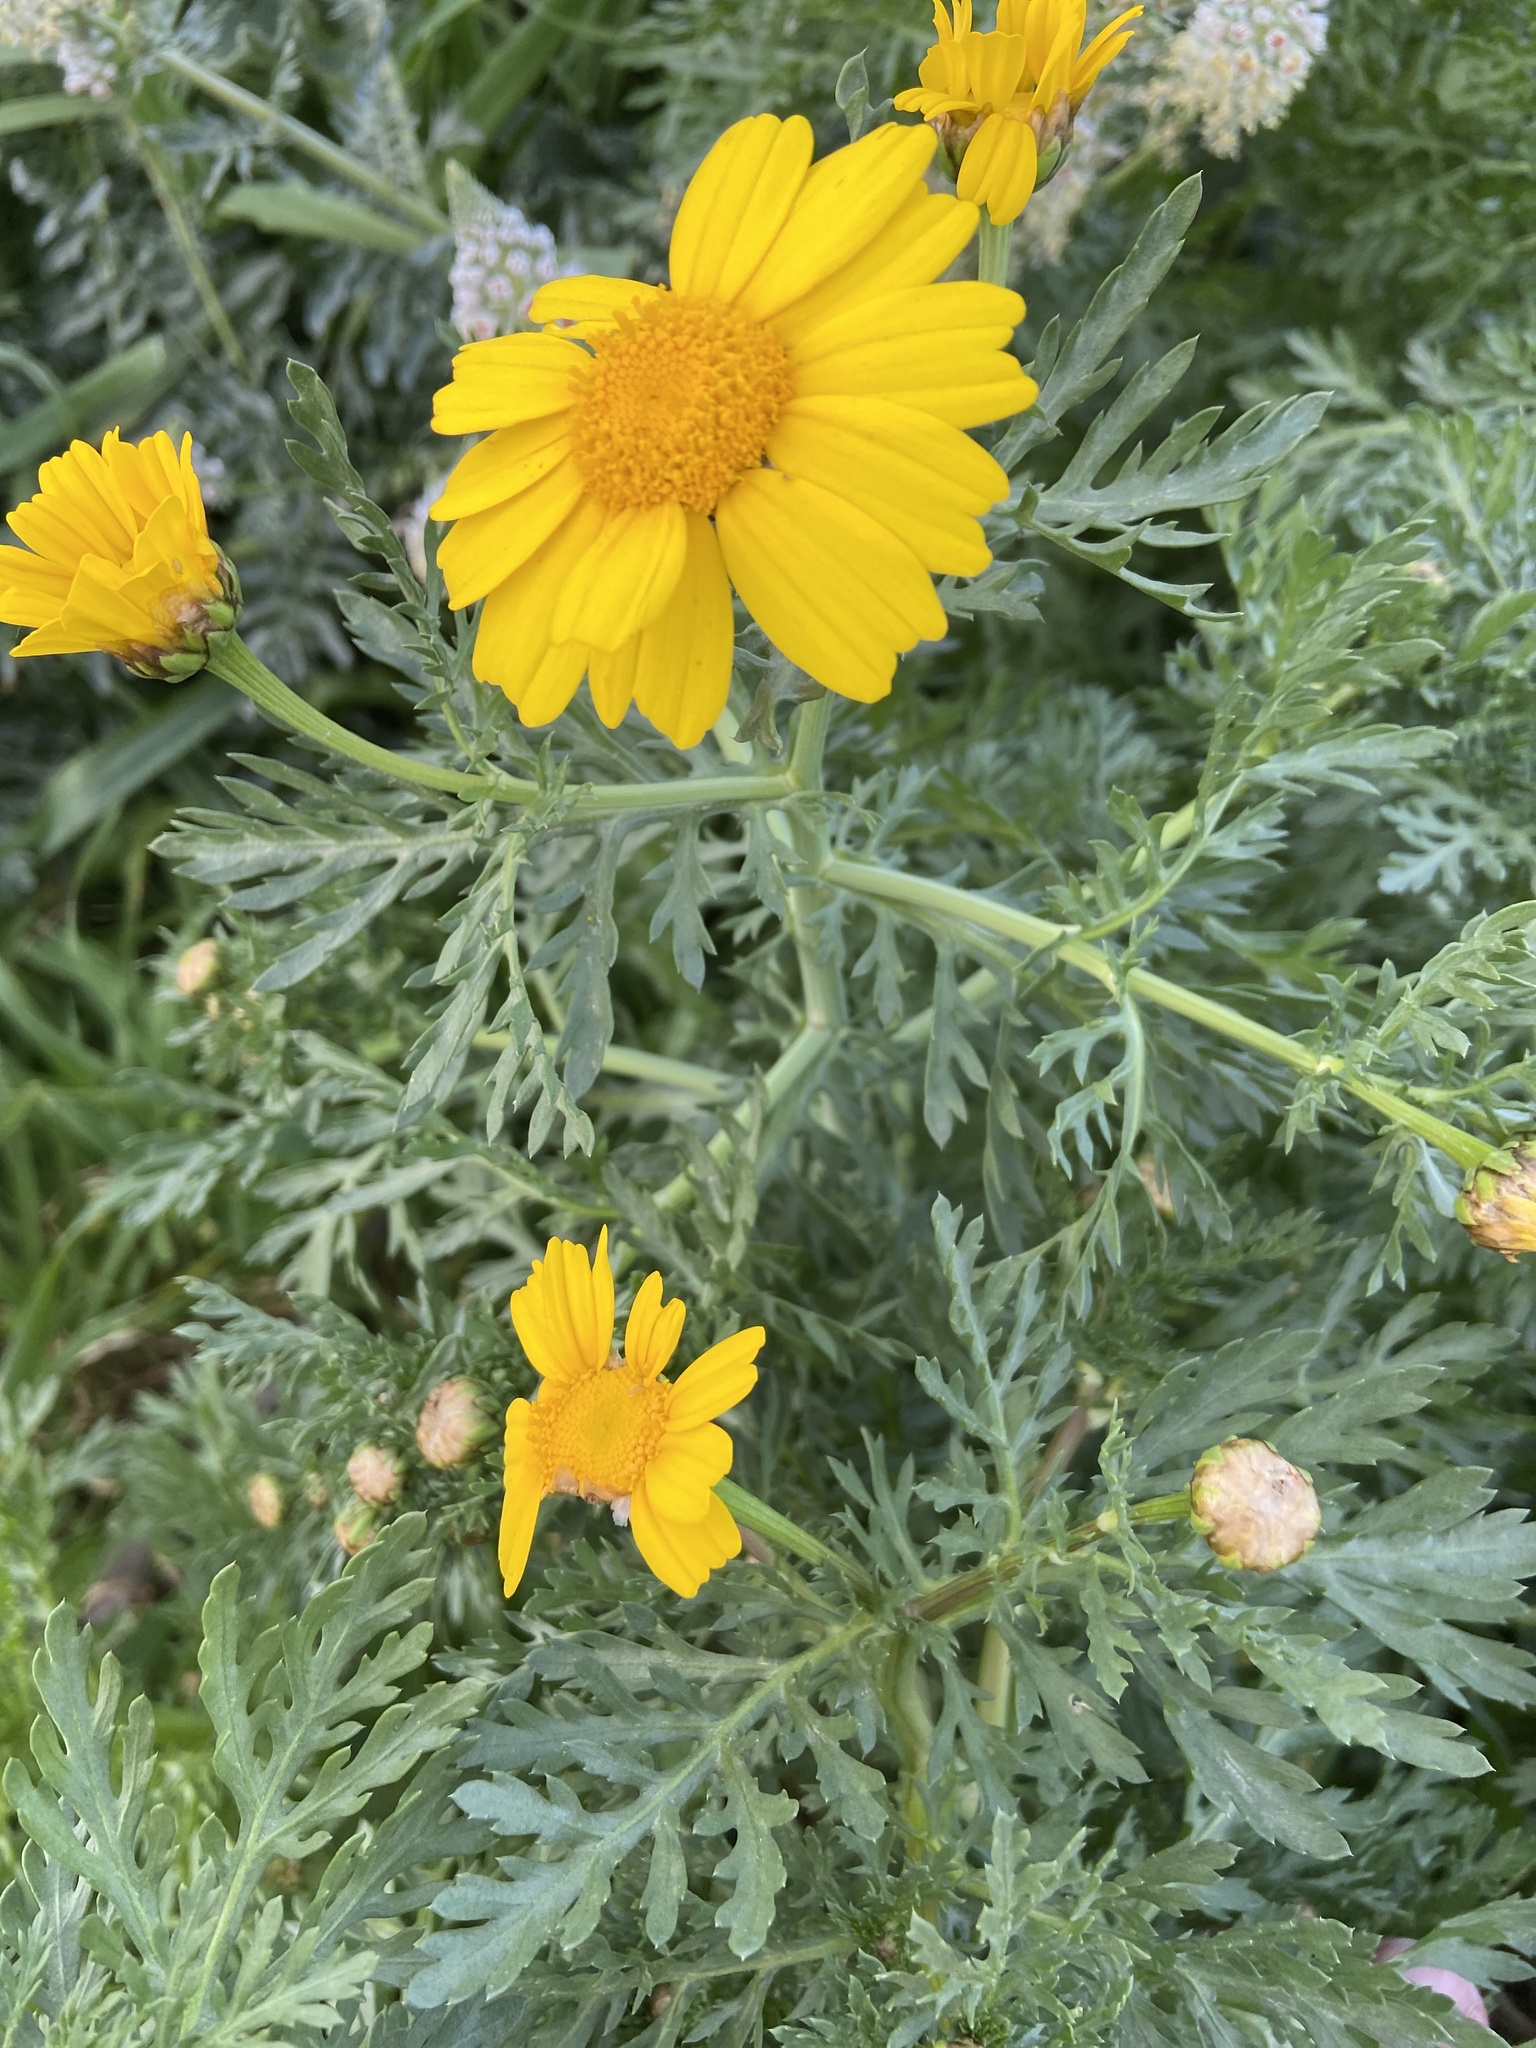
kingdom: Plantae
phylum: Tracheophyta
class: Magnoliopsida
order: Asterales
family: Asteraceae
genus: Glebionis
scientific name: Glebionis coronaria
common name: Crowndaisy
